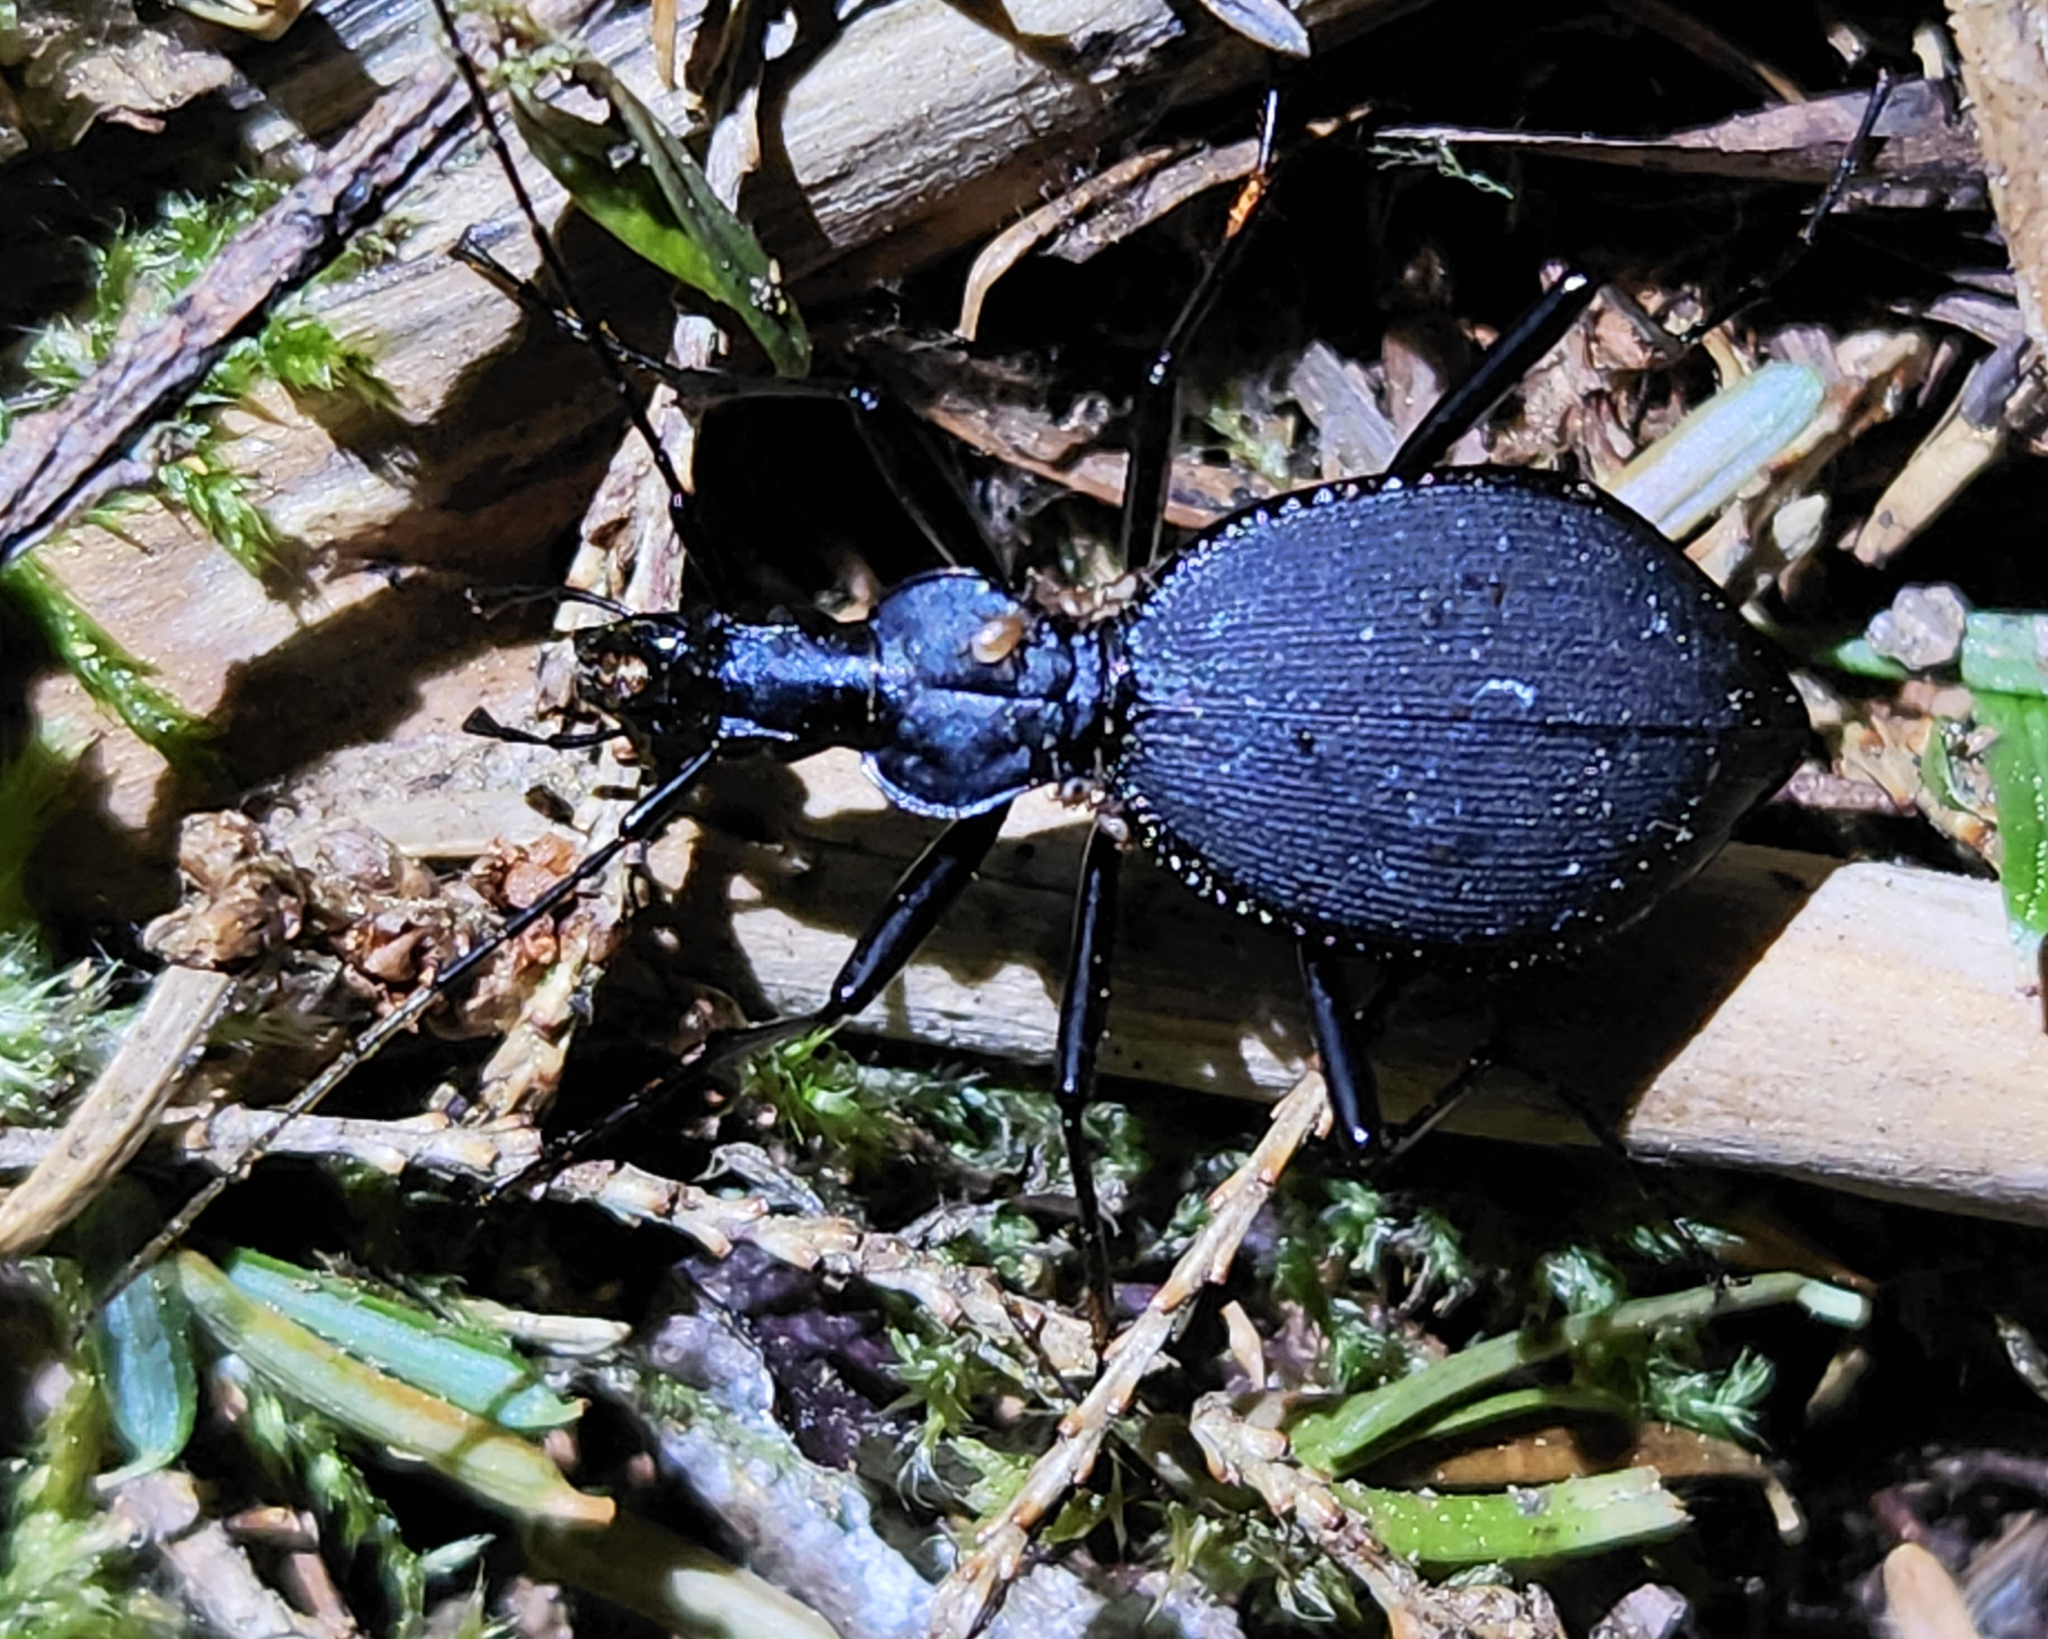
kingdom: Animalia
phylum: Arthropoda
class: Insecta
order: Coleoptera
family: Carabidae
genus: Scaphinotus
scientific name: Scaphinotus angusticollis
